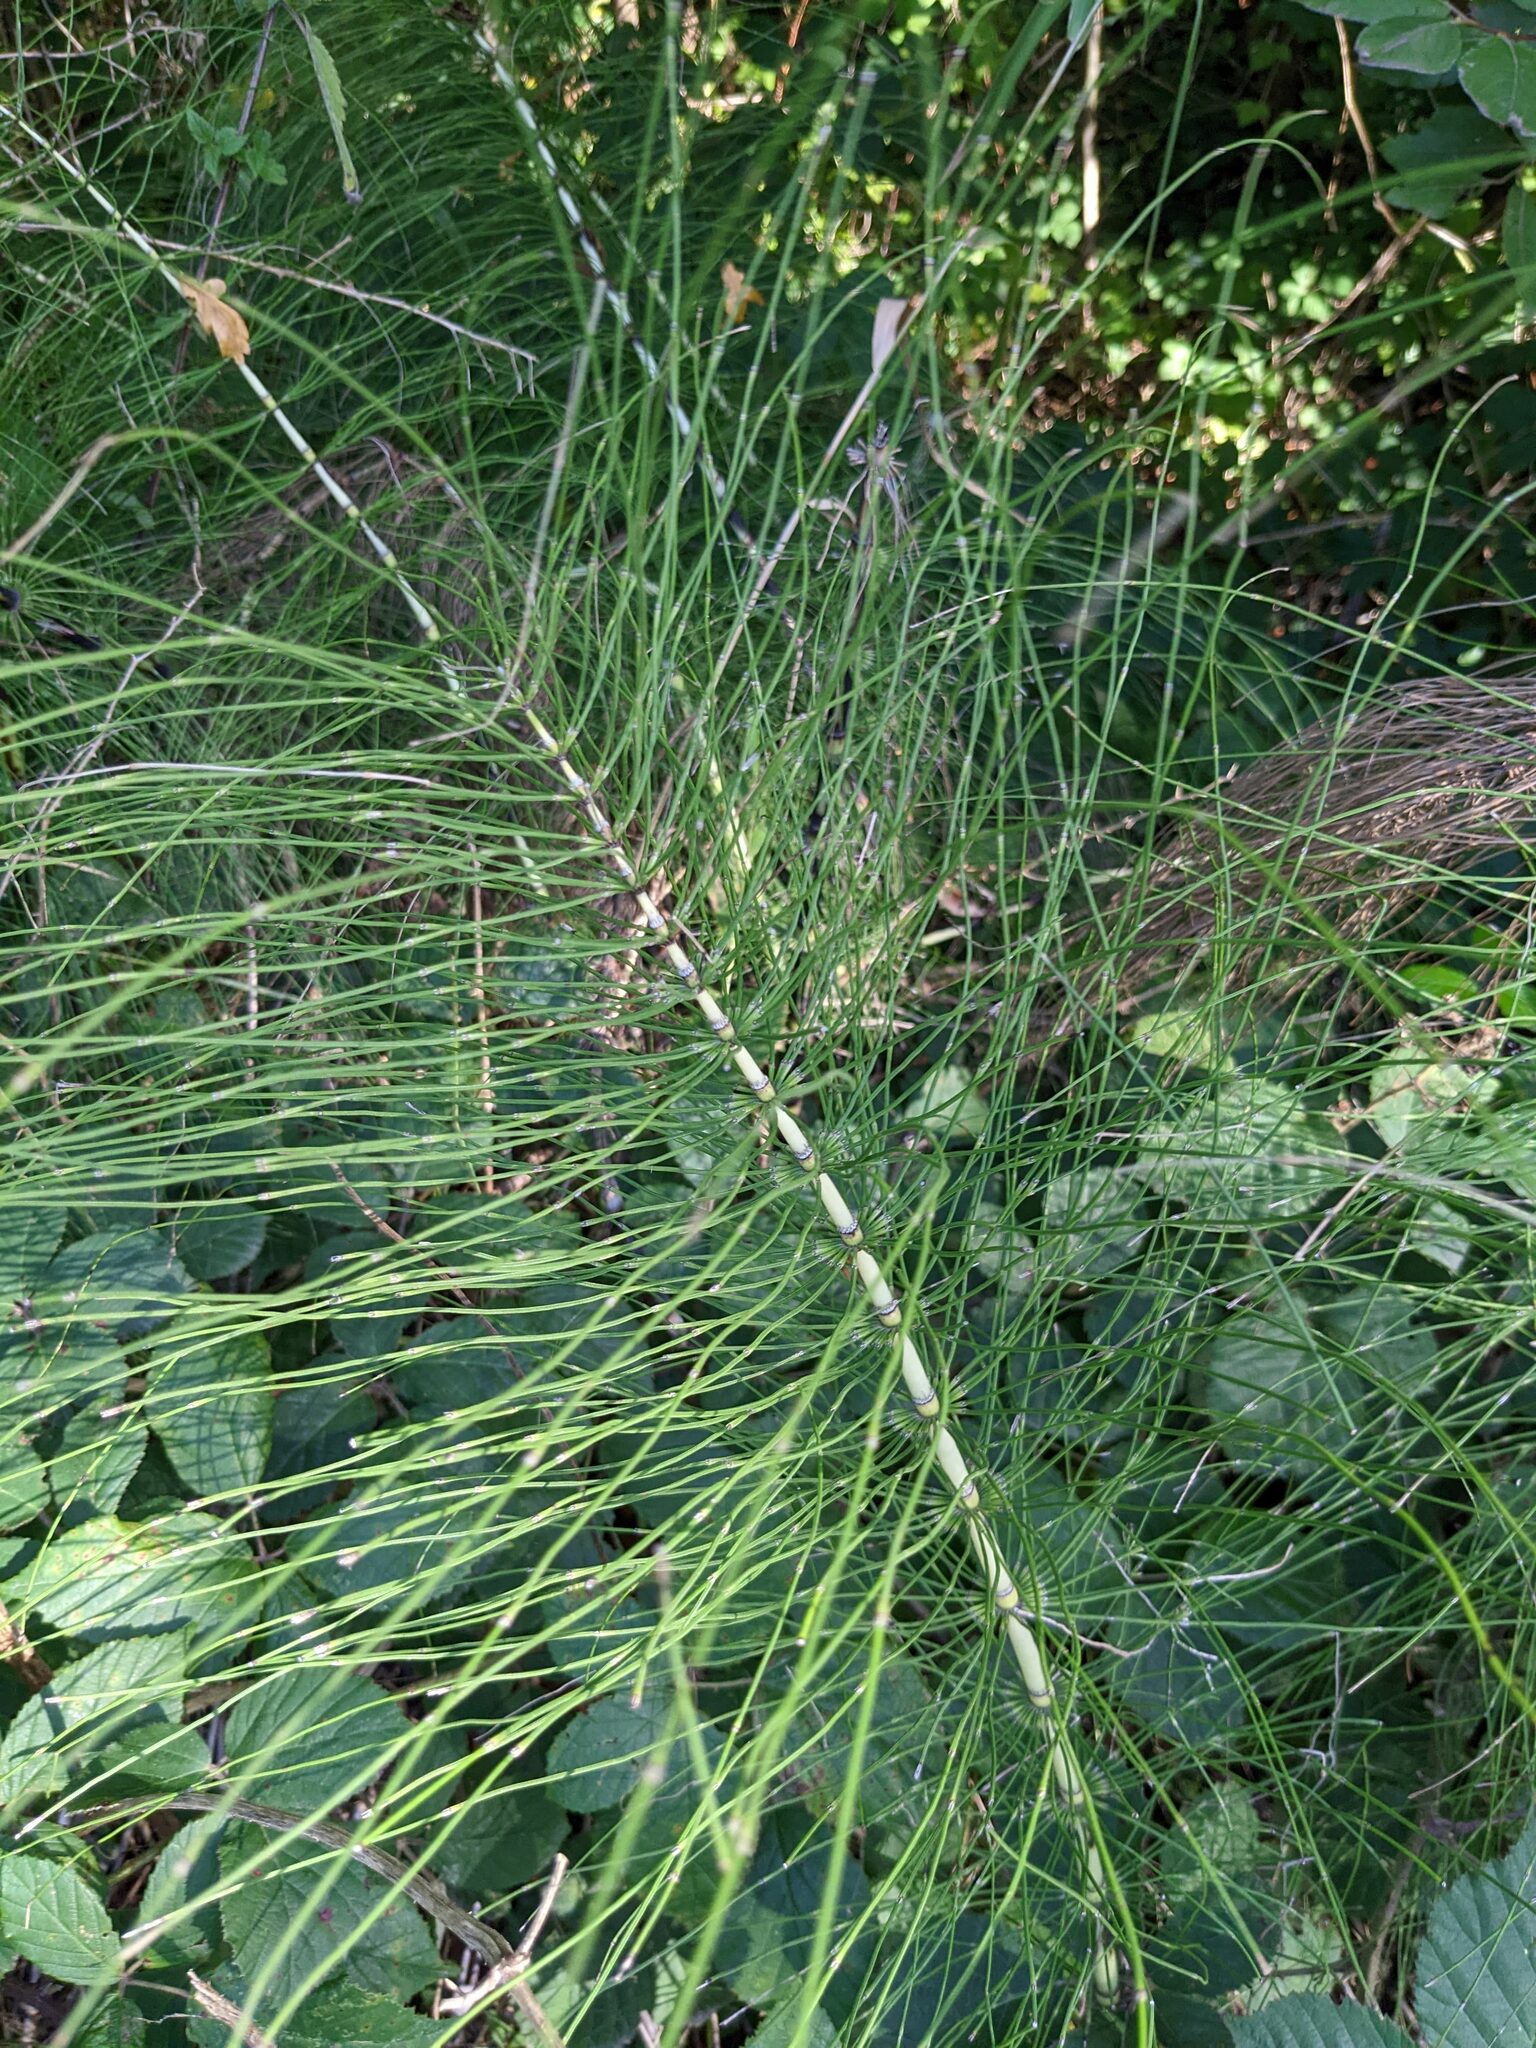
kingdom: Plantae
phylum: Tracheophyta
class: Polypodiopsida
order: Equisetales
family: Equisetaceae
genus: Equisetum
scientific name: Equisetum telmateia
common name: Great horsetail
